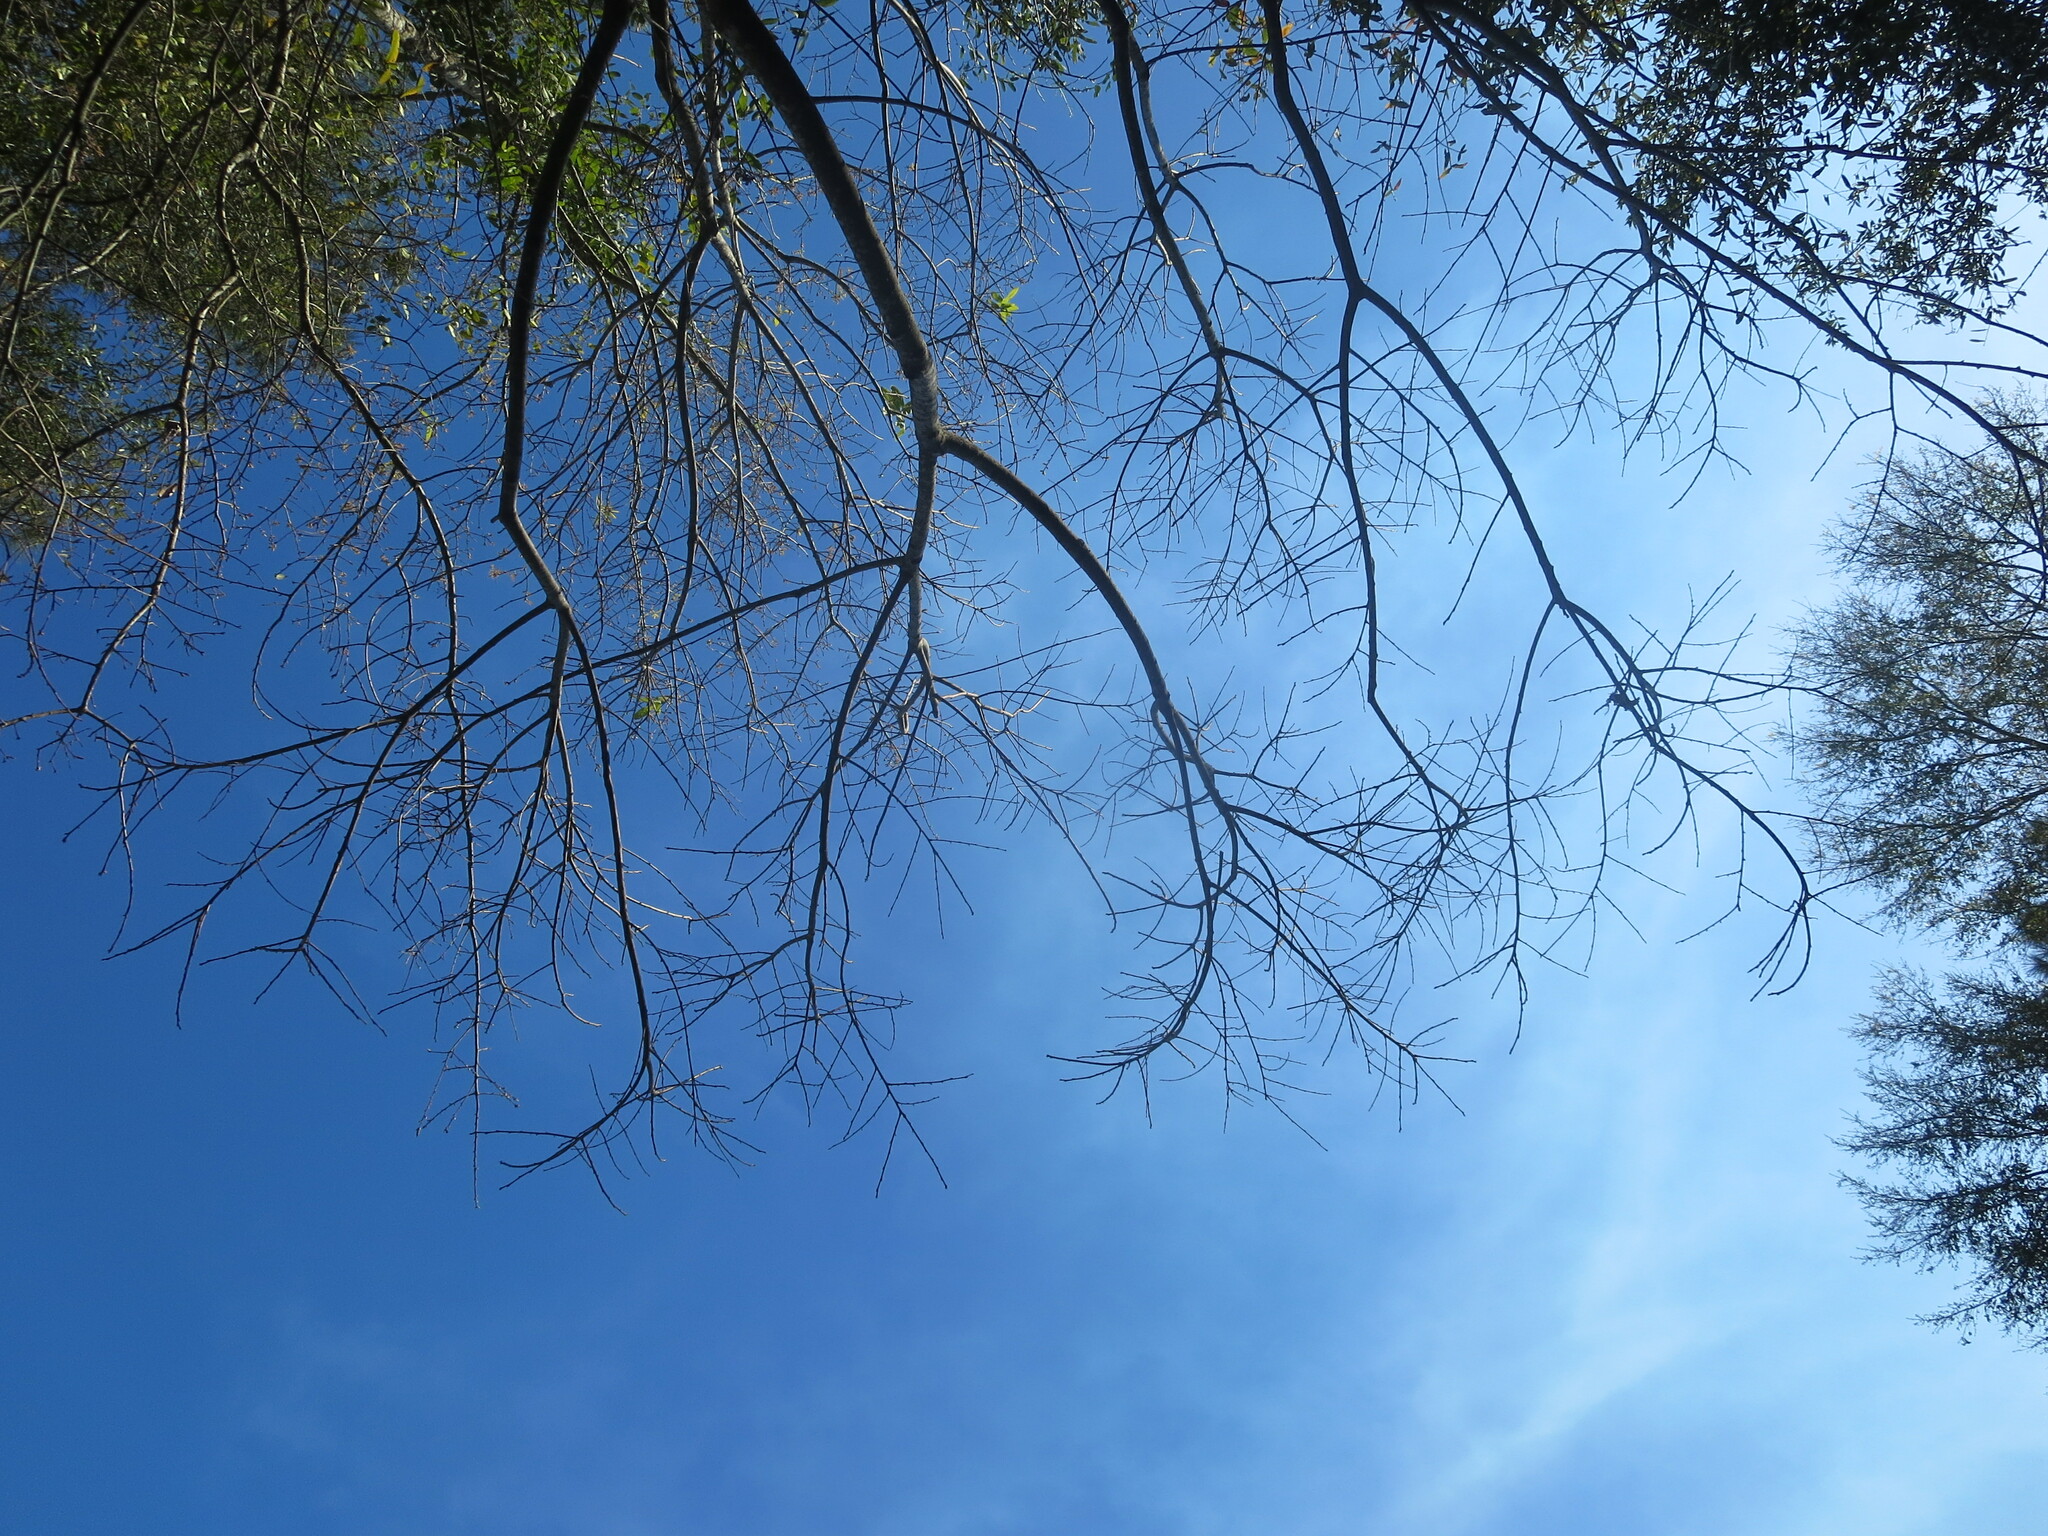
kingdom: Plantae
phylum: Tracheophyta
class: Magnoliopsida
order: Ericales
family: Ebenaceae
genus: Diospyros
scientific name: Diospyros virginiana
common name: Persimmon
